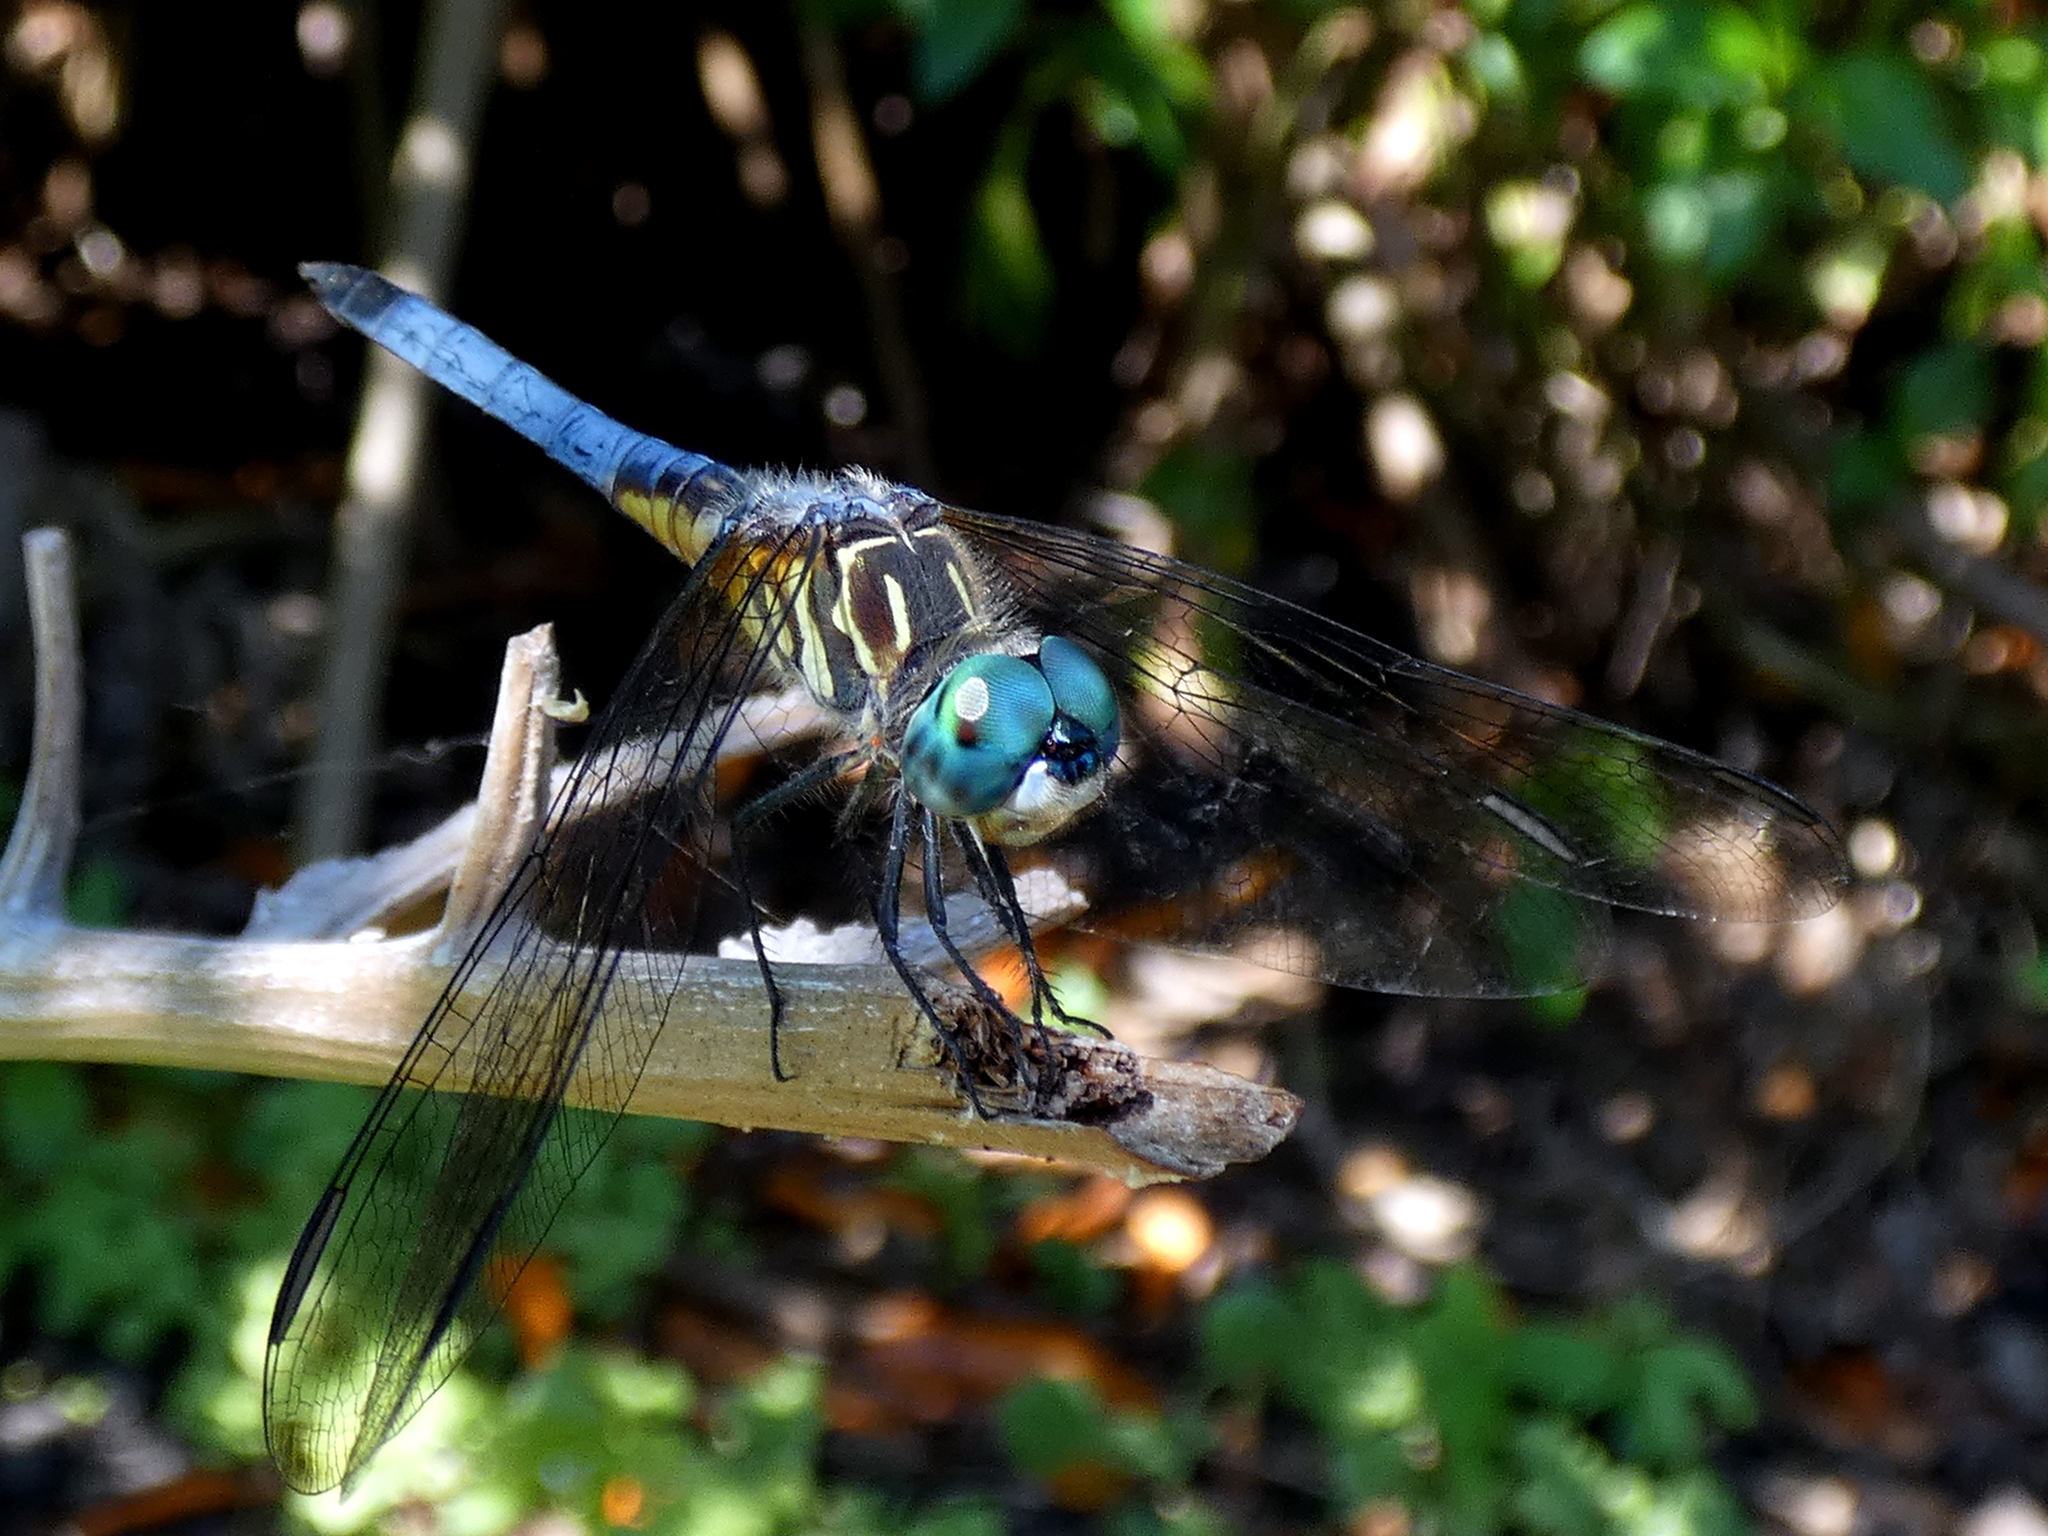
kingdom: Animalia
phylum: Arthropoda
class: Insecta
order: Odonata
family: Libellulidae
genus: Pachydiplax
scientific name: Pachydiplax longipennis
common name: Blue dasher
